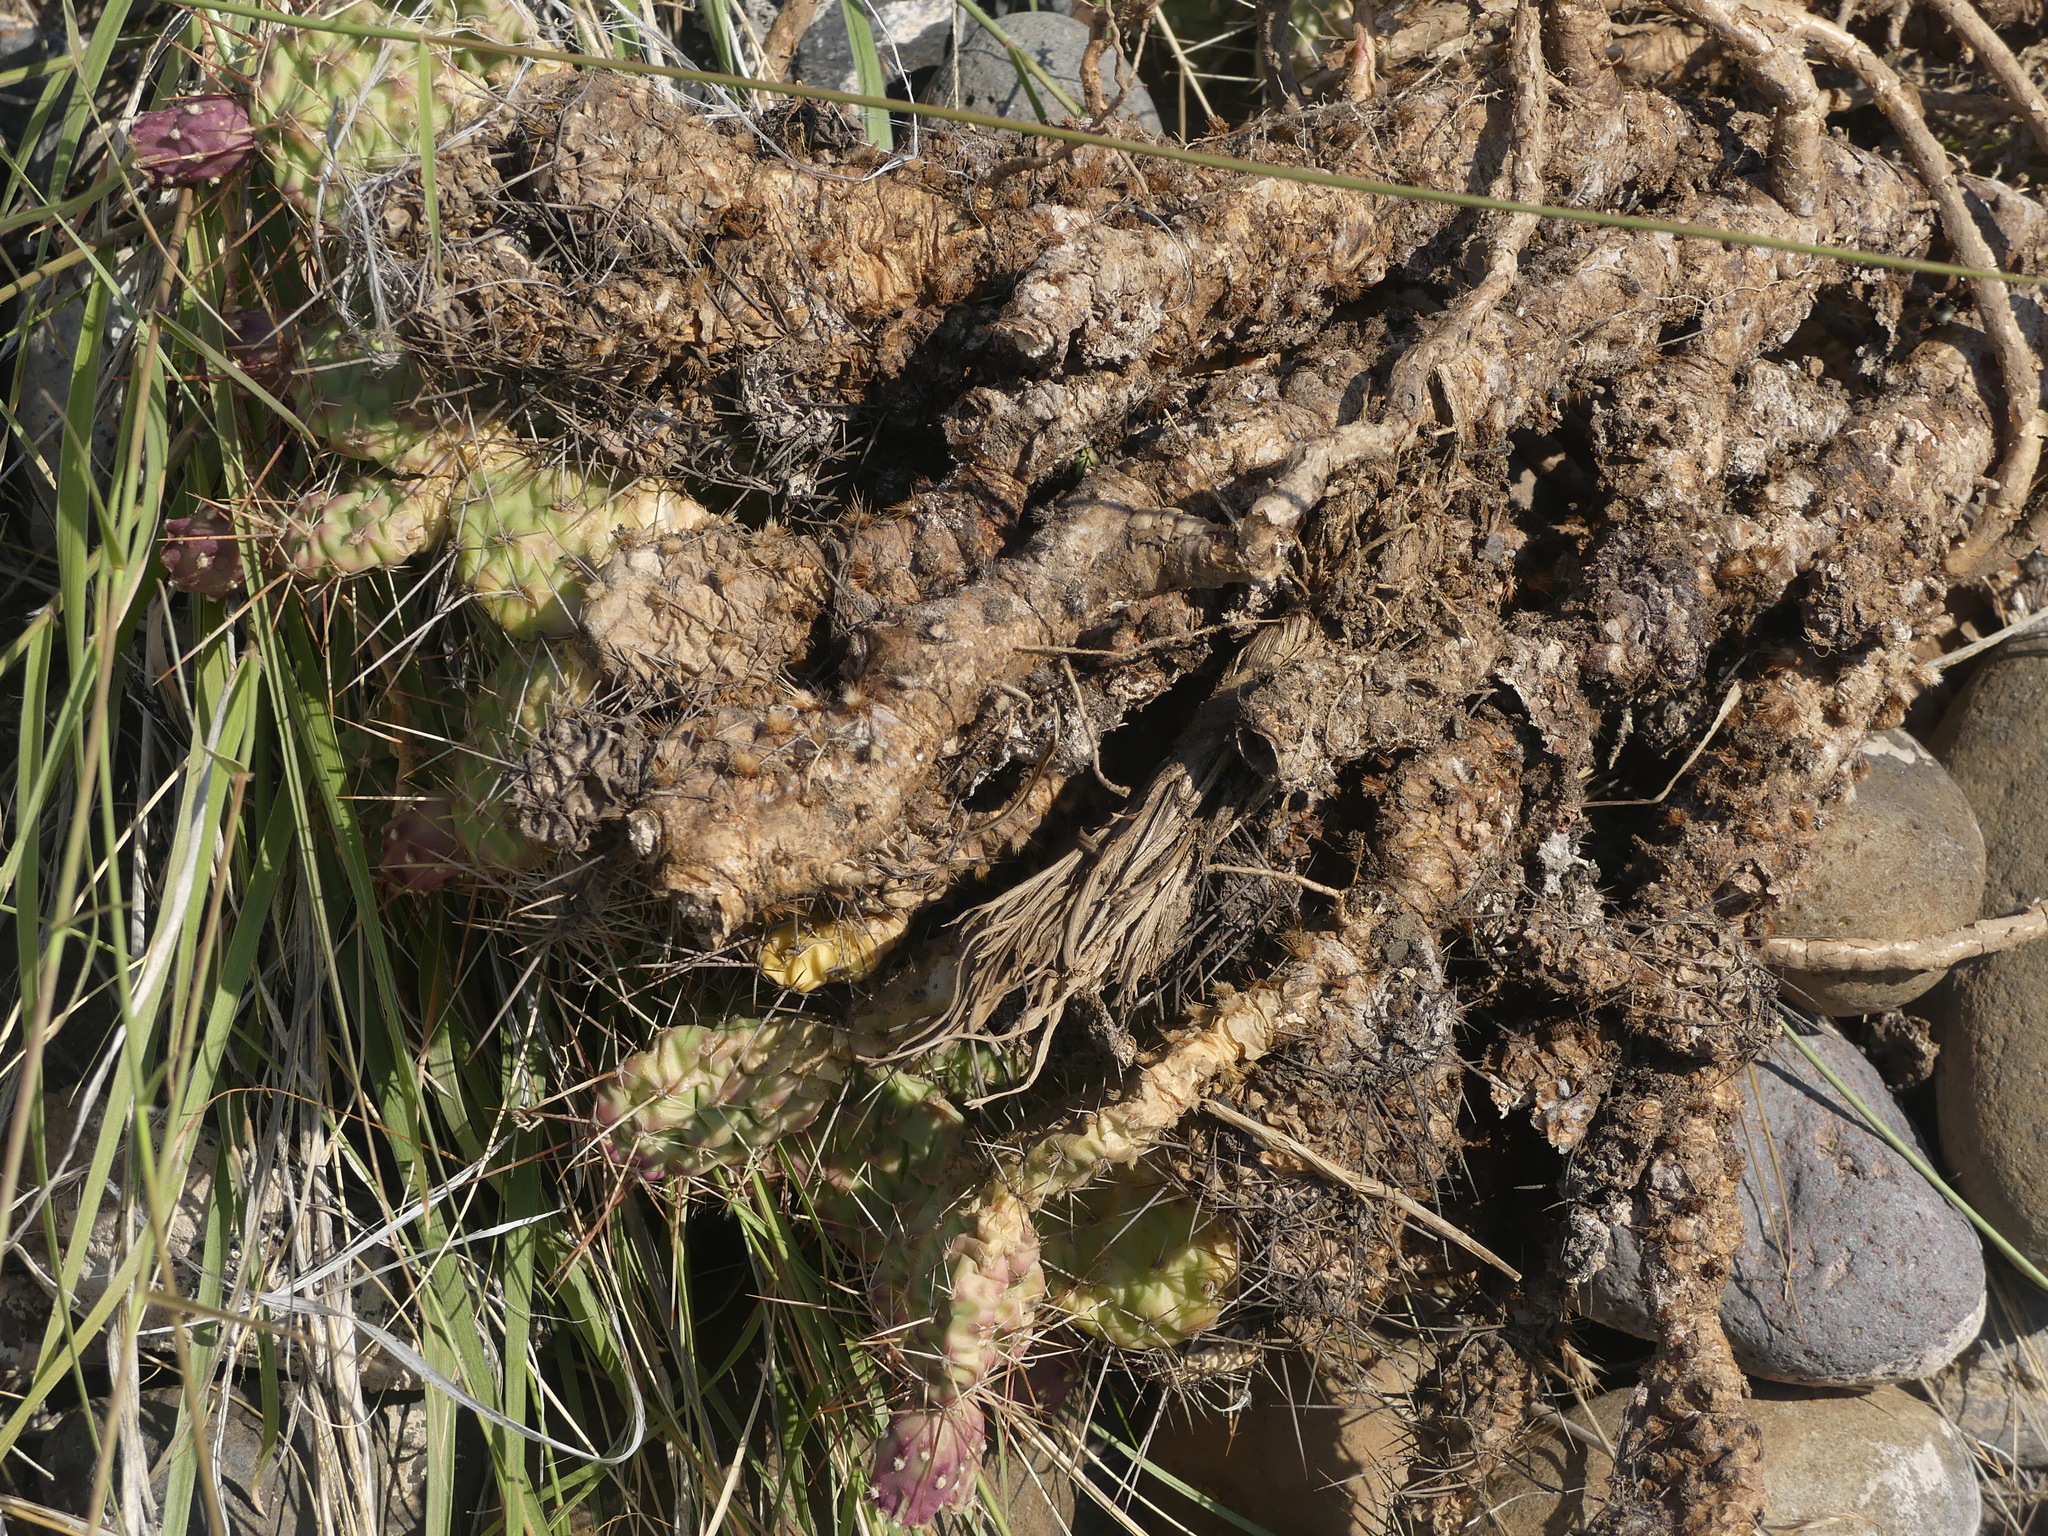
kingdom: Plantae
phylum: Tracheophyta
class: Magnoliopsida
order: Caryophyllales
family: Cactaceae
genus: Opuntia
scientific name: Opuntia columbiana
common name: Columbia prickly-pear
